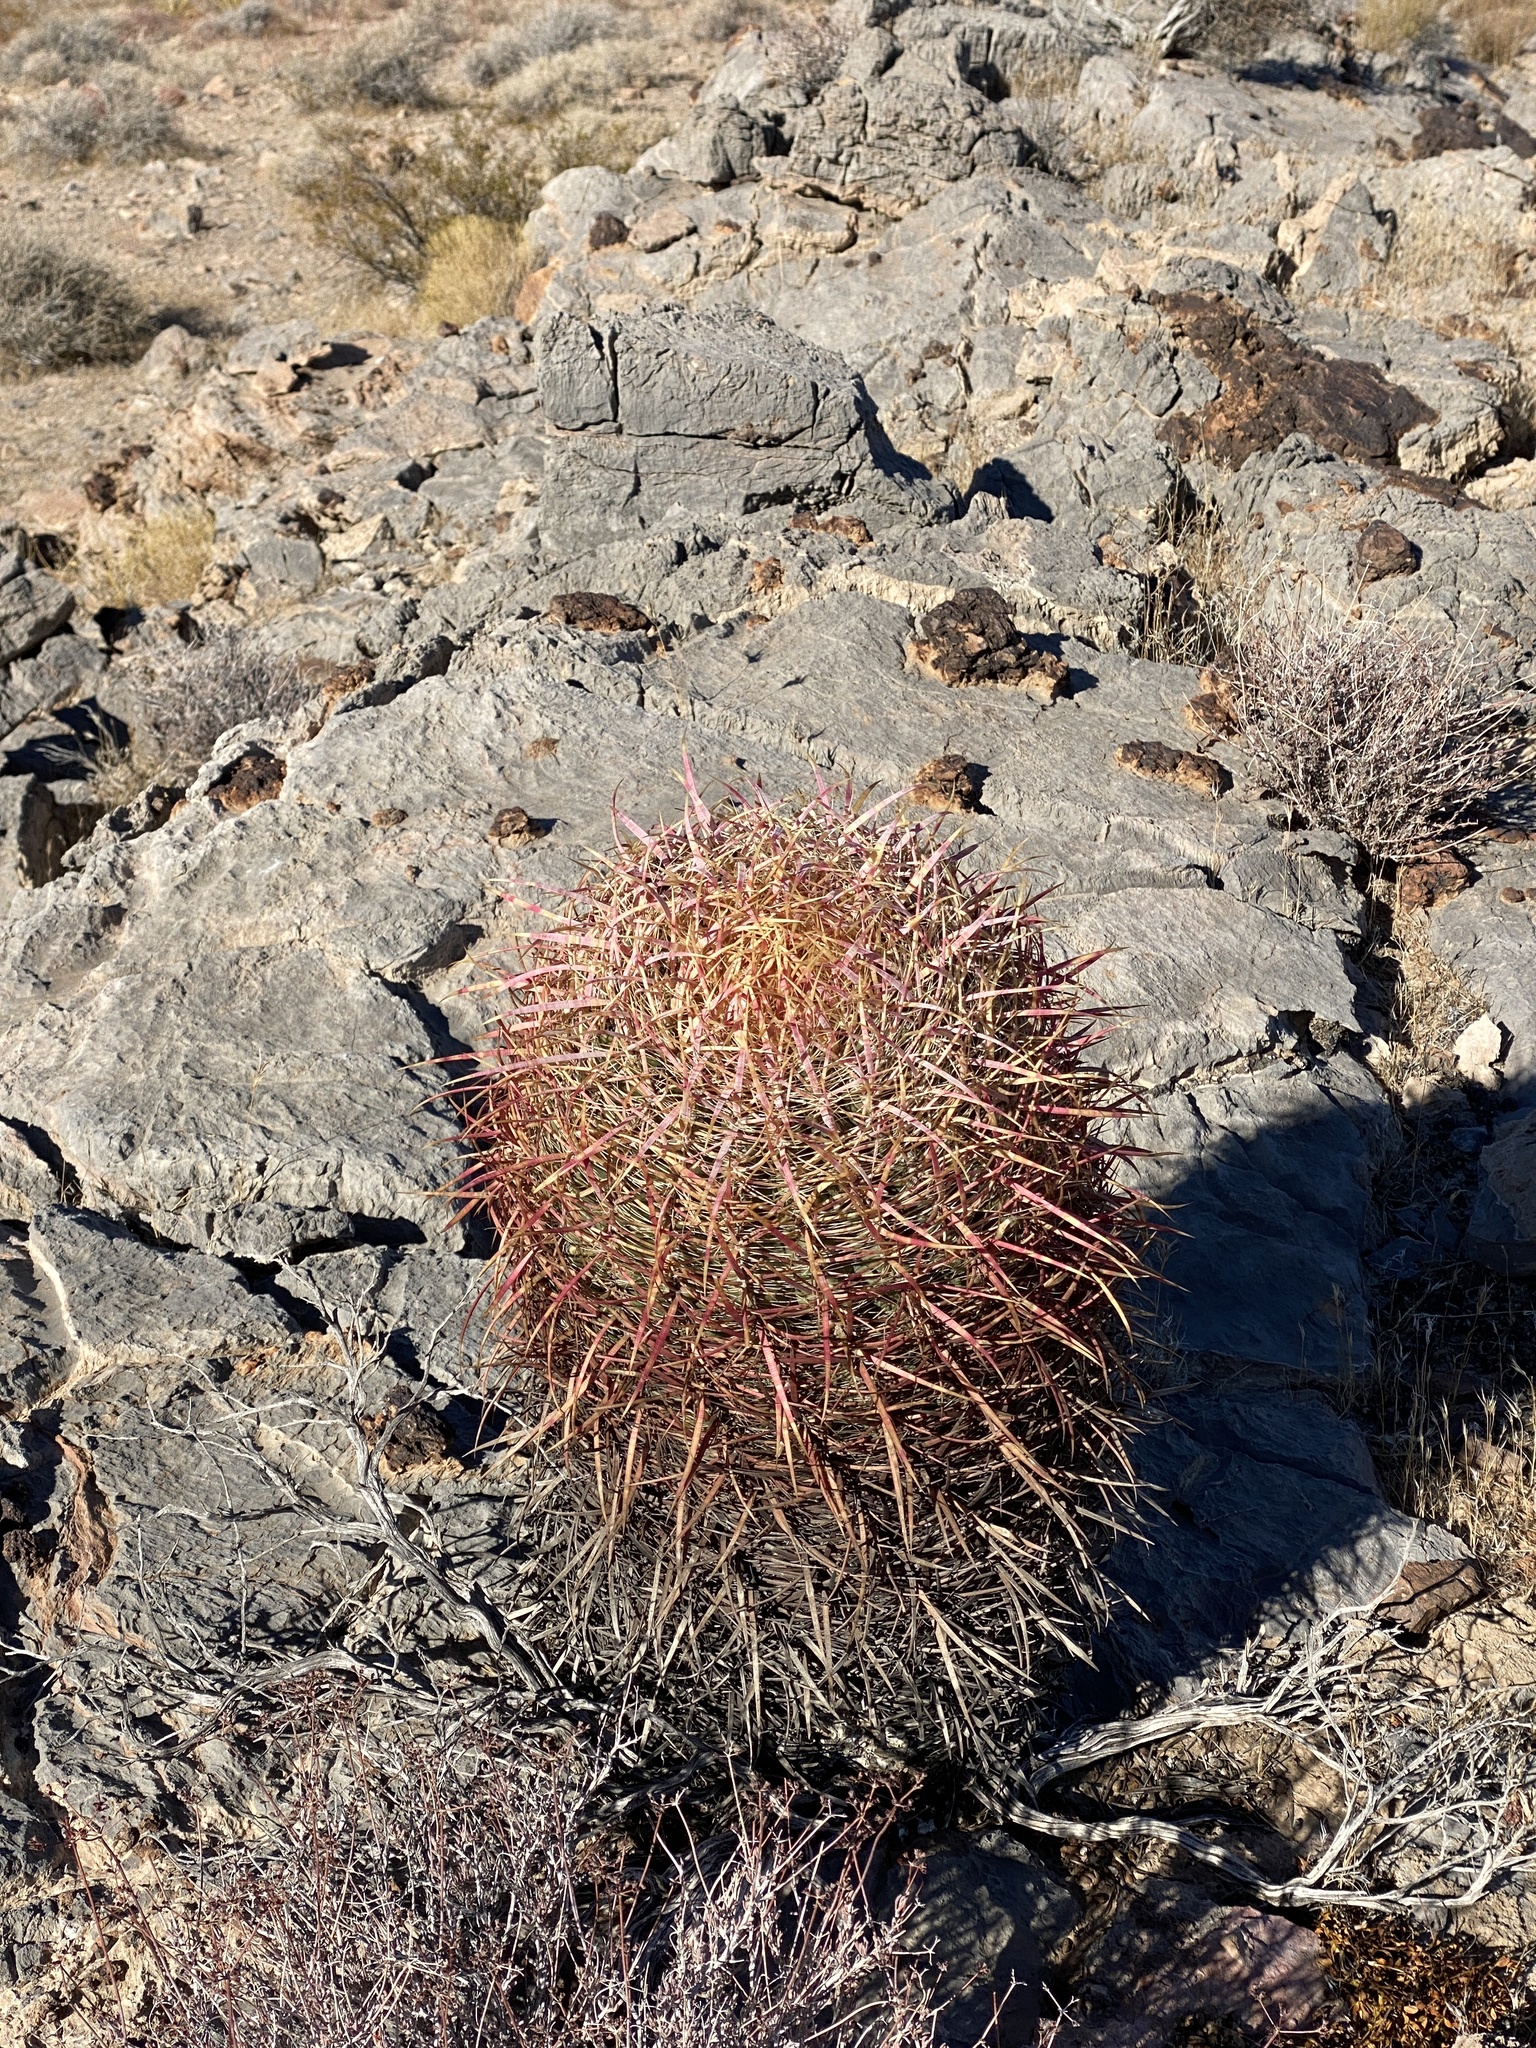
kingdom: Plantae
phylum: Tracheophyta
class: Magnoliopsida
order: Caryophyllales
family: Cactaceae
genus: Ferocactus
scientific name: Ferocactus cylindraceus
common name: California barrel cactus
